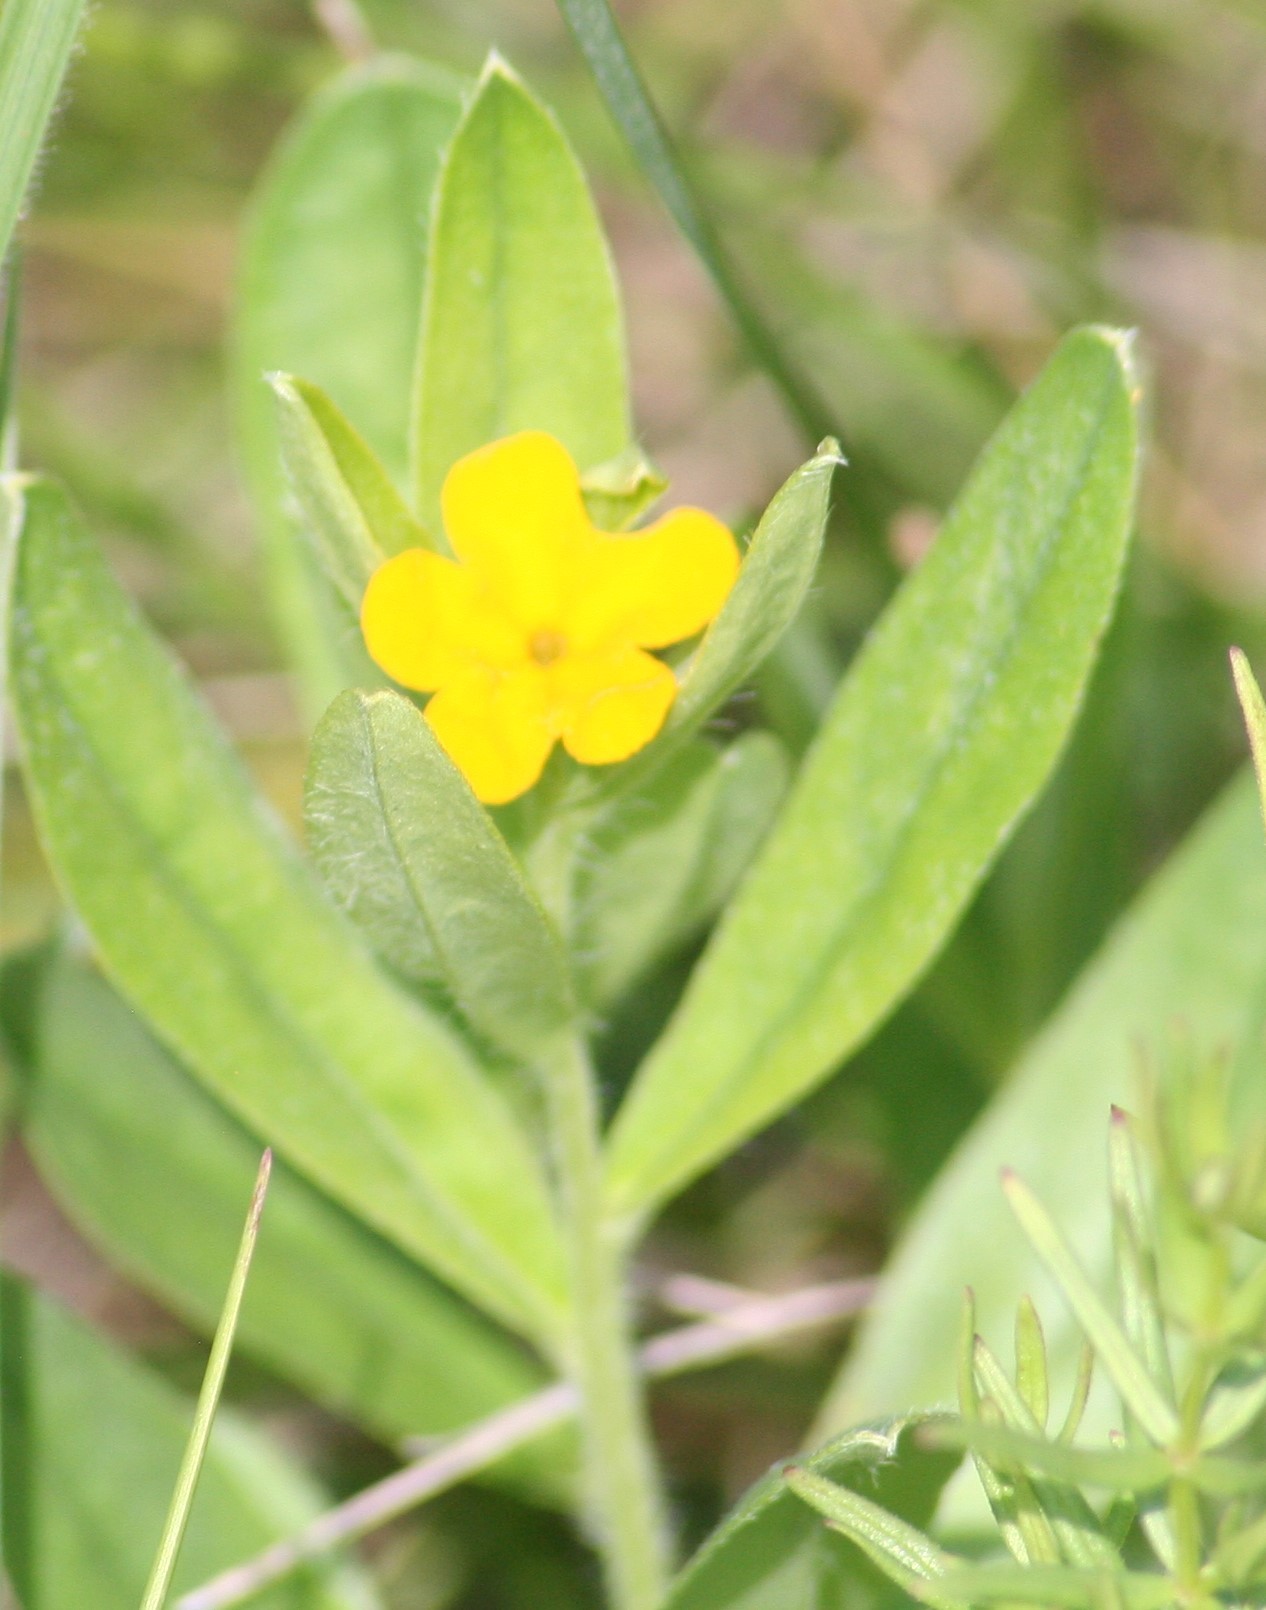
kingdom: Plantae
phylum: Tracheophyta
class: Magnoliopsida
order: Boraginales
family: Boraginaceae
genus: Lithospermum
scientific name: Lithospermum canescens
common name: Hoary puccoon
